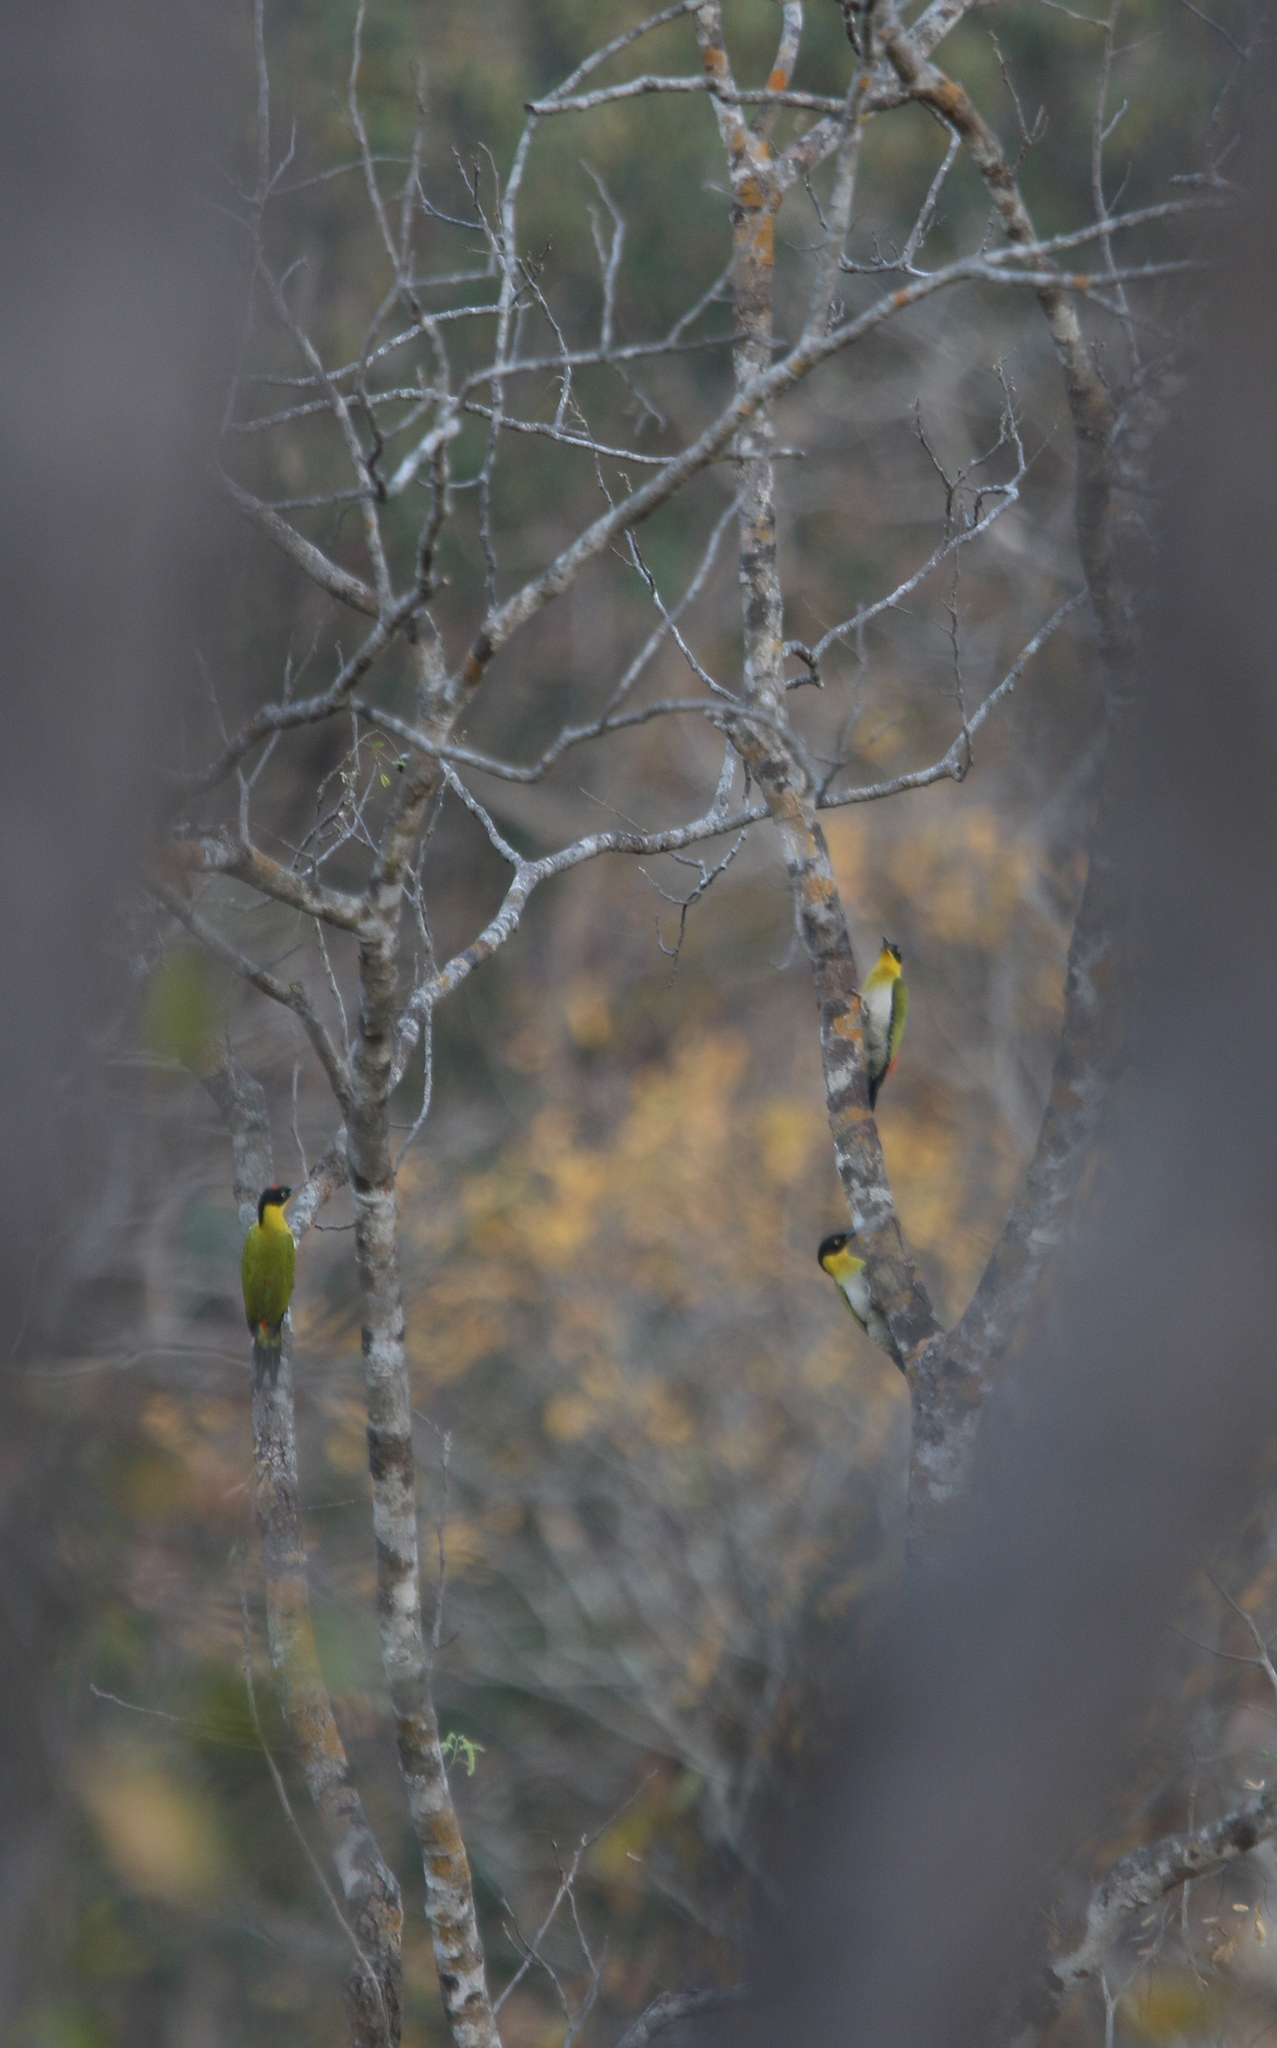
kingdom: Animalia
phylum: Chordata
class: Aves
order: Piciformes
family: Picidae
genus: Picus
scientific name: Picus erythropygius
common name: Black-headed woodpecker
